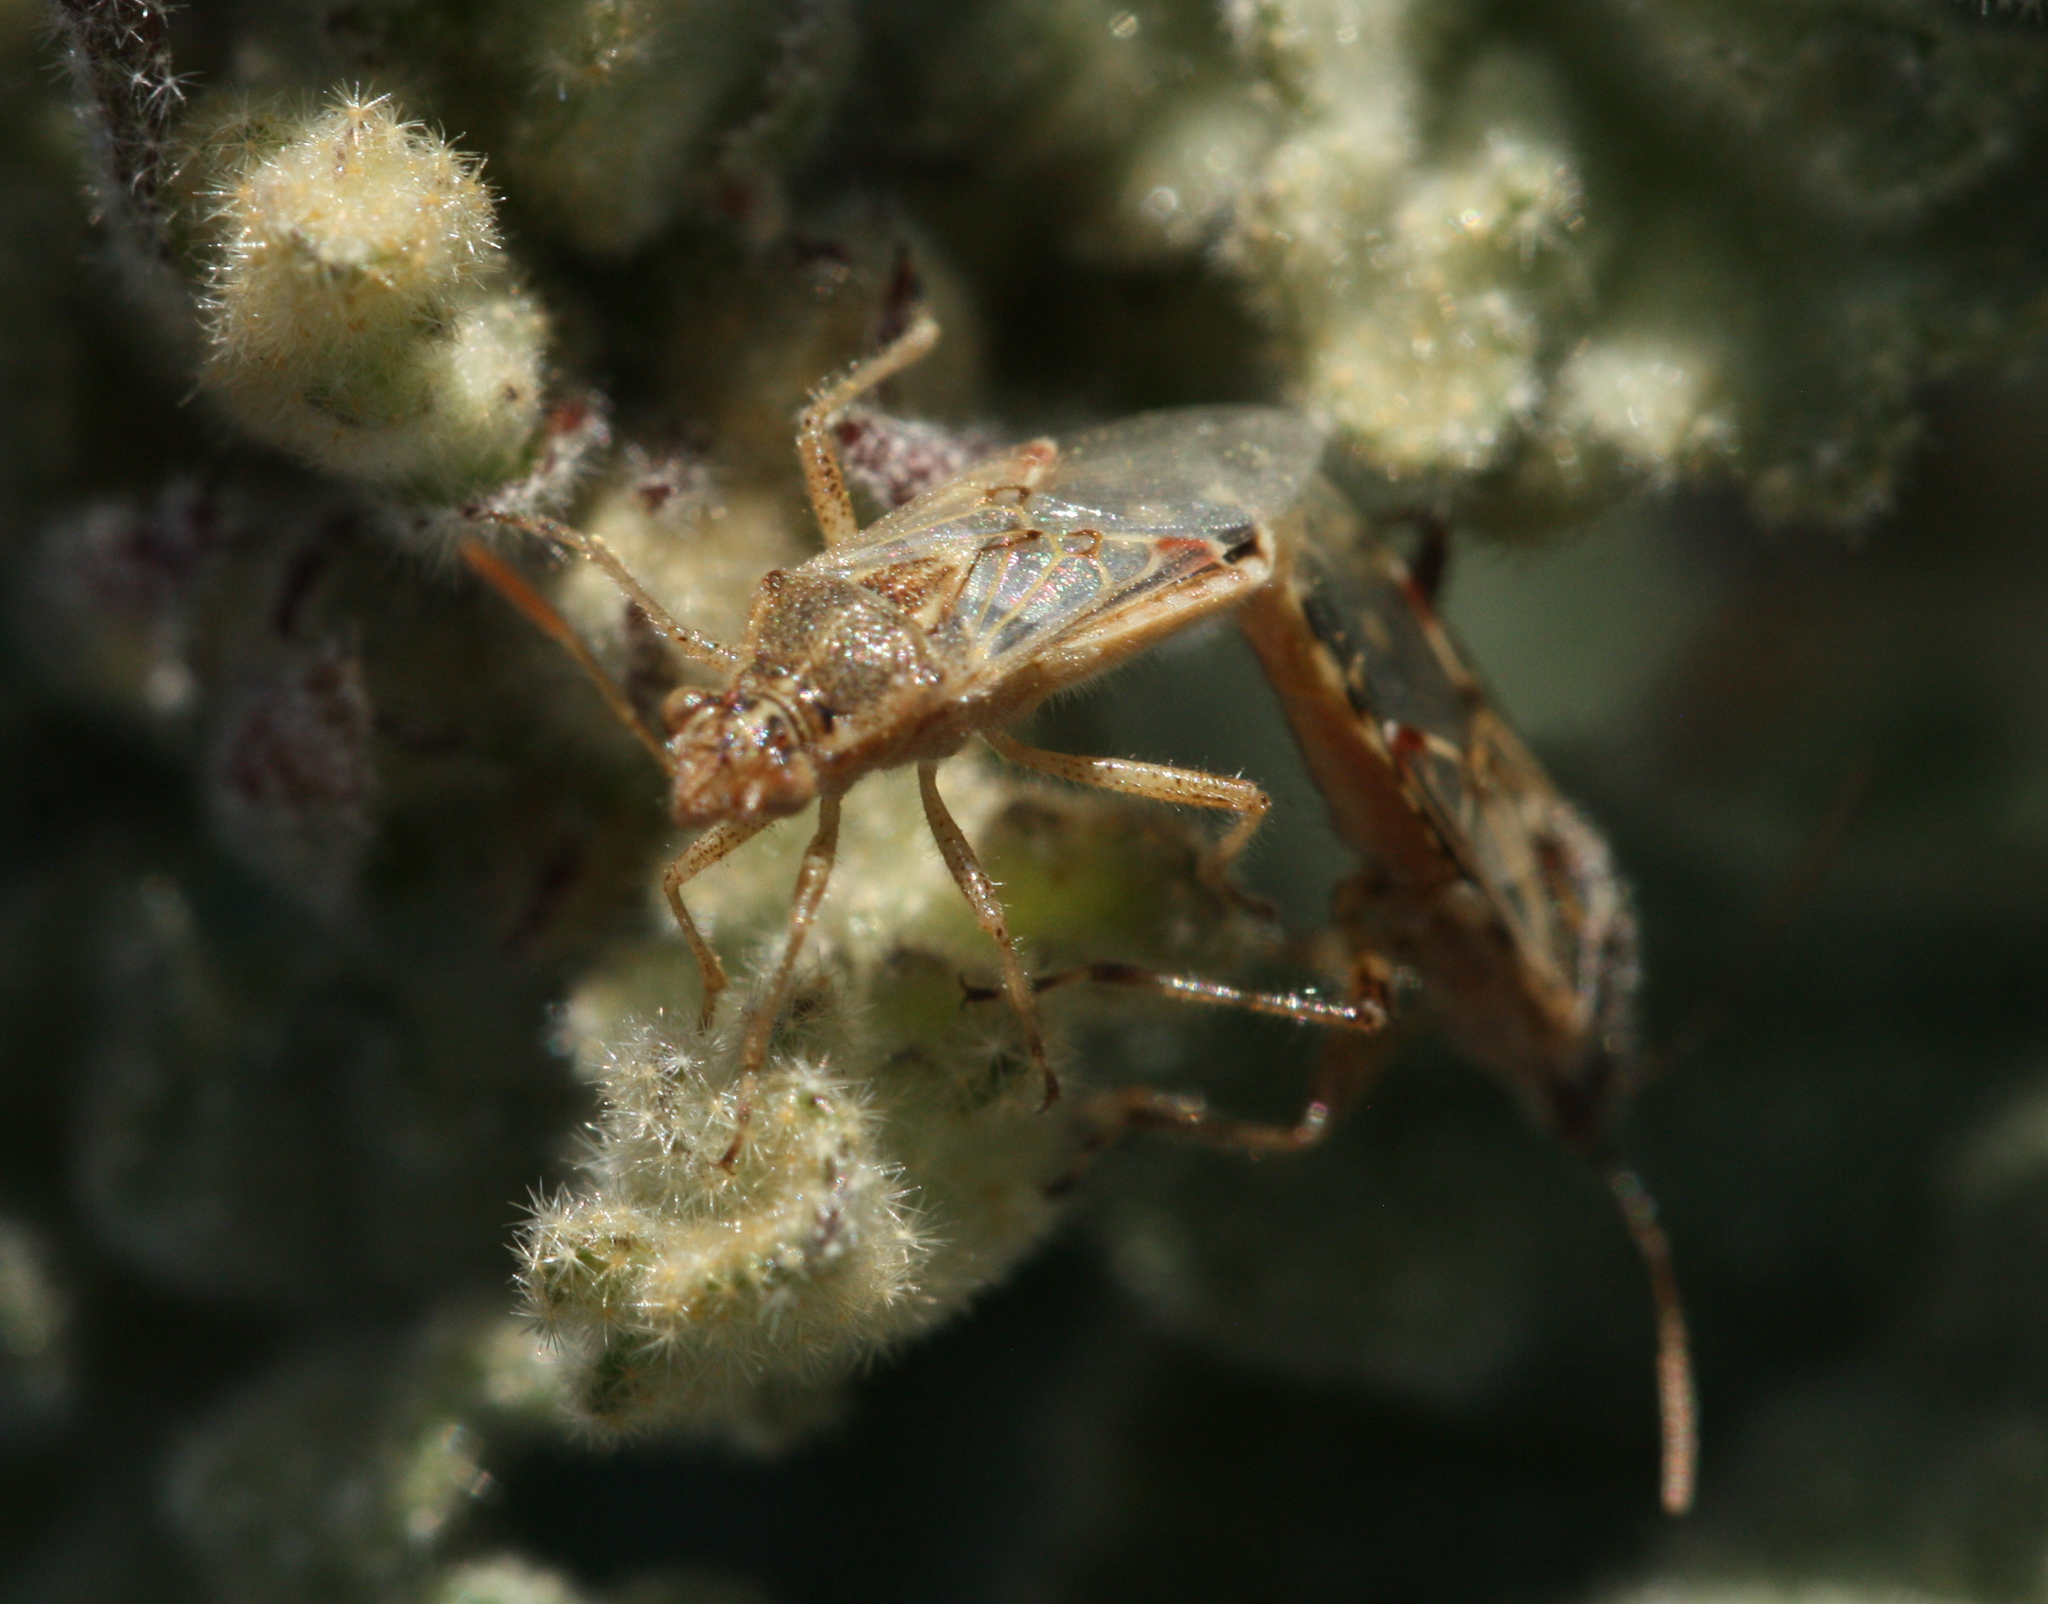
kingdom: Animalia
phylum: Arthropoda
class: Insecta
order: Hemiptera
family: Rhopalidae
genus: Liorhyssus
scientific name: Liorhyssus hyalinus
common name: Scentless plant bug
